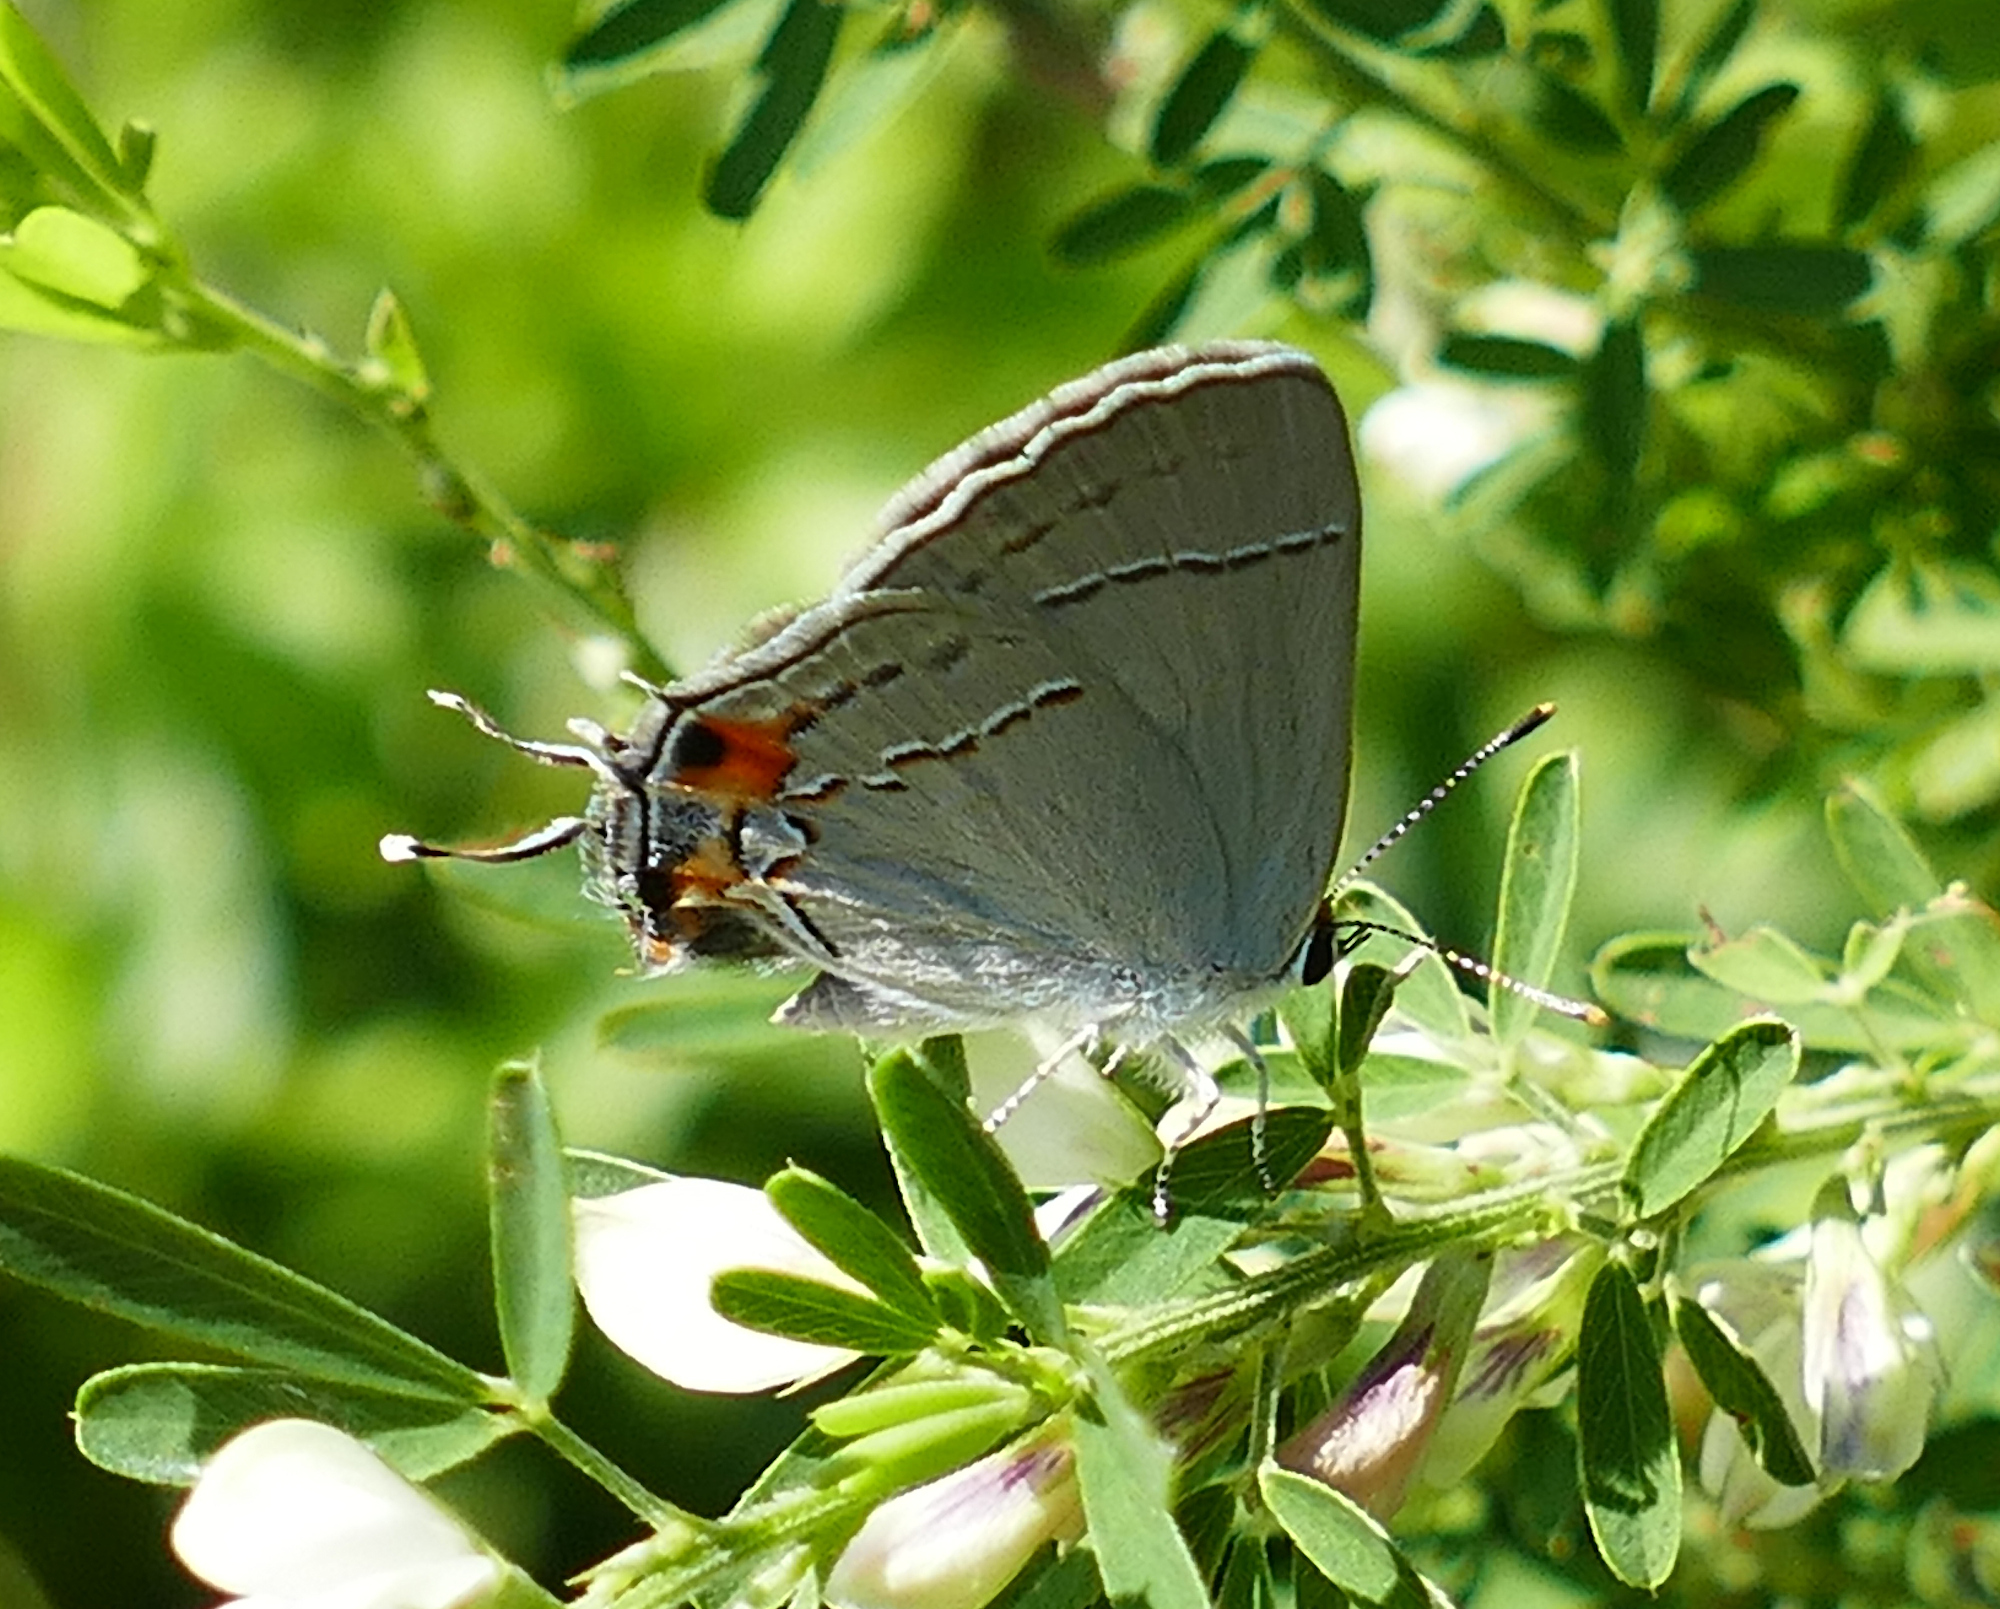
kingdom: Animalia
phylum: Arthropoda
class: Insecta
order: Lepidoptera
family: Lycaenidae
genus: Strymon
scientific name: Strymon melinus
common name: Gray hairstreak
